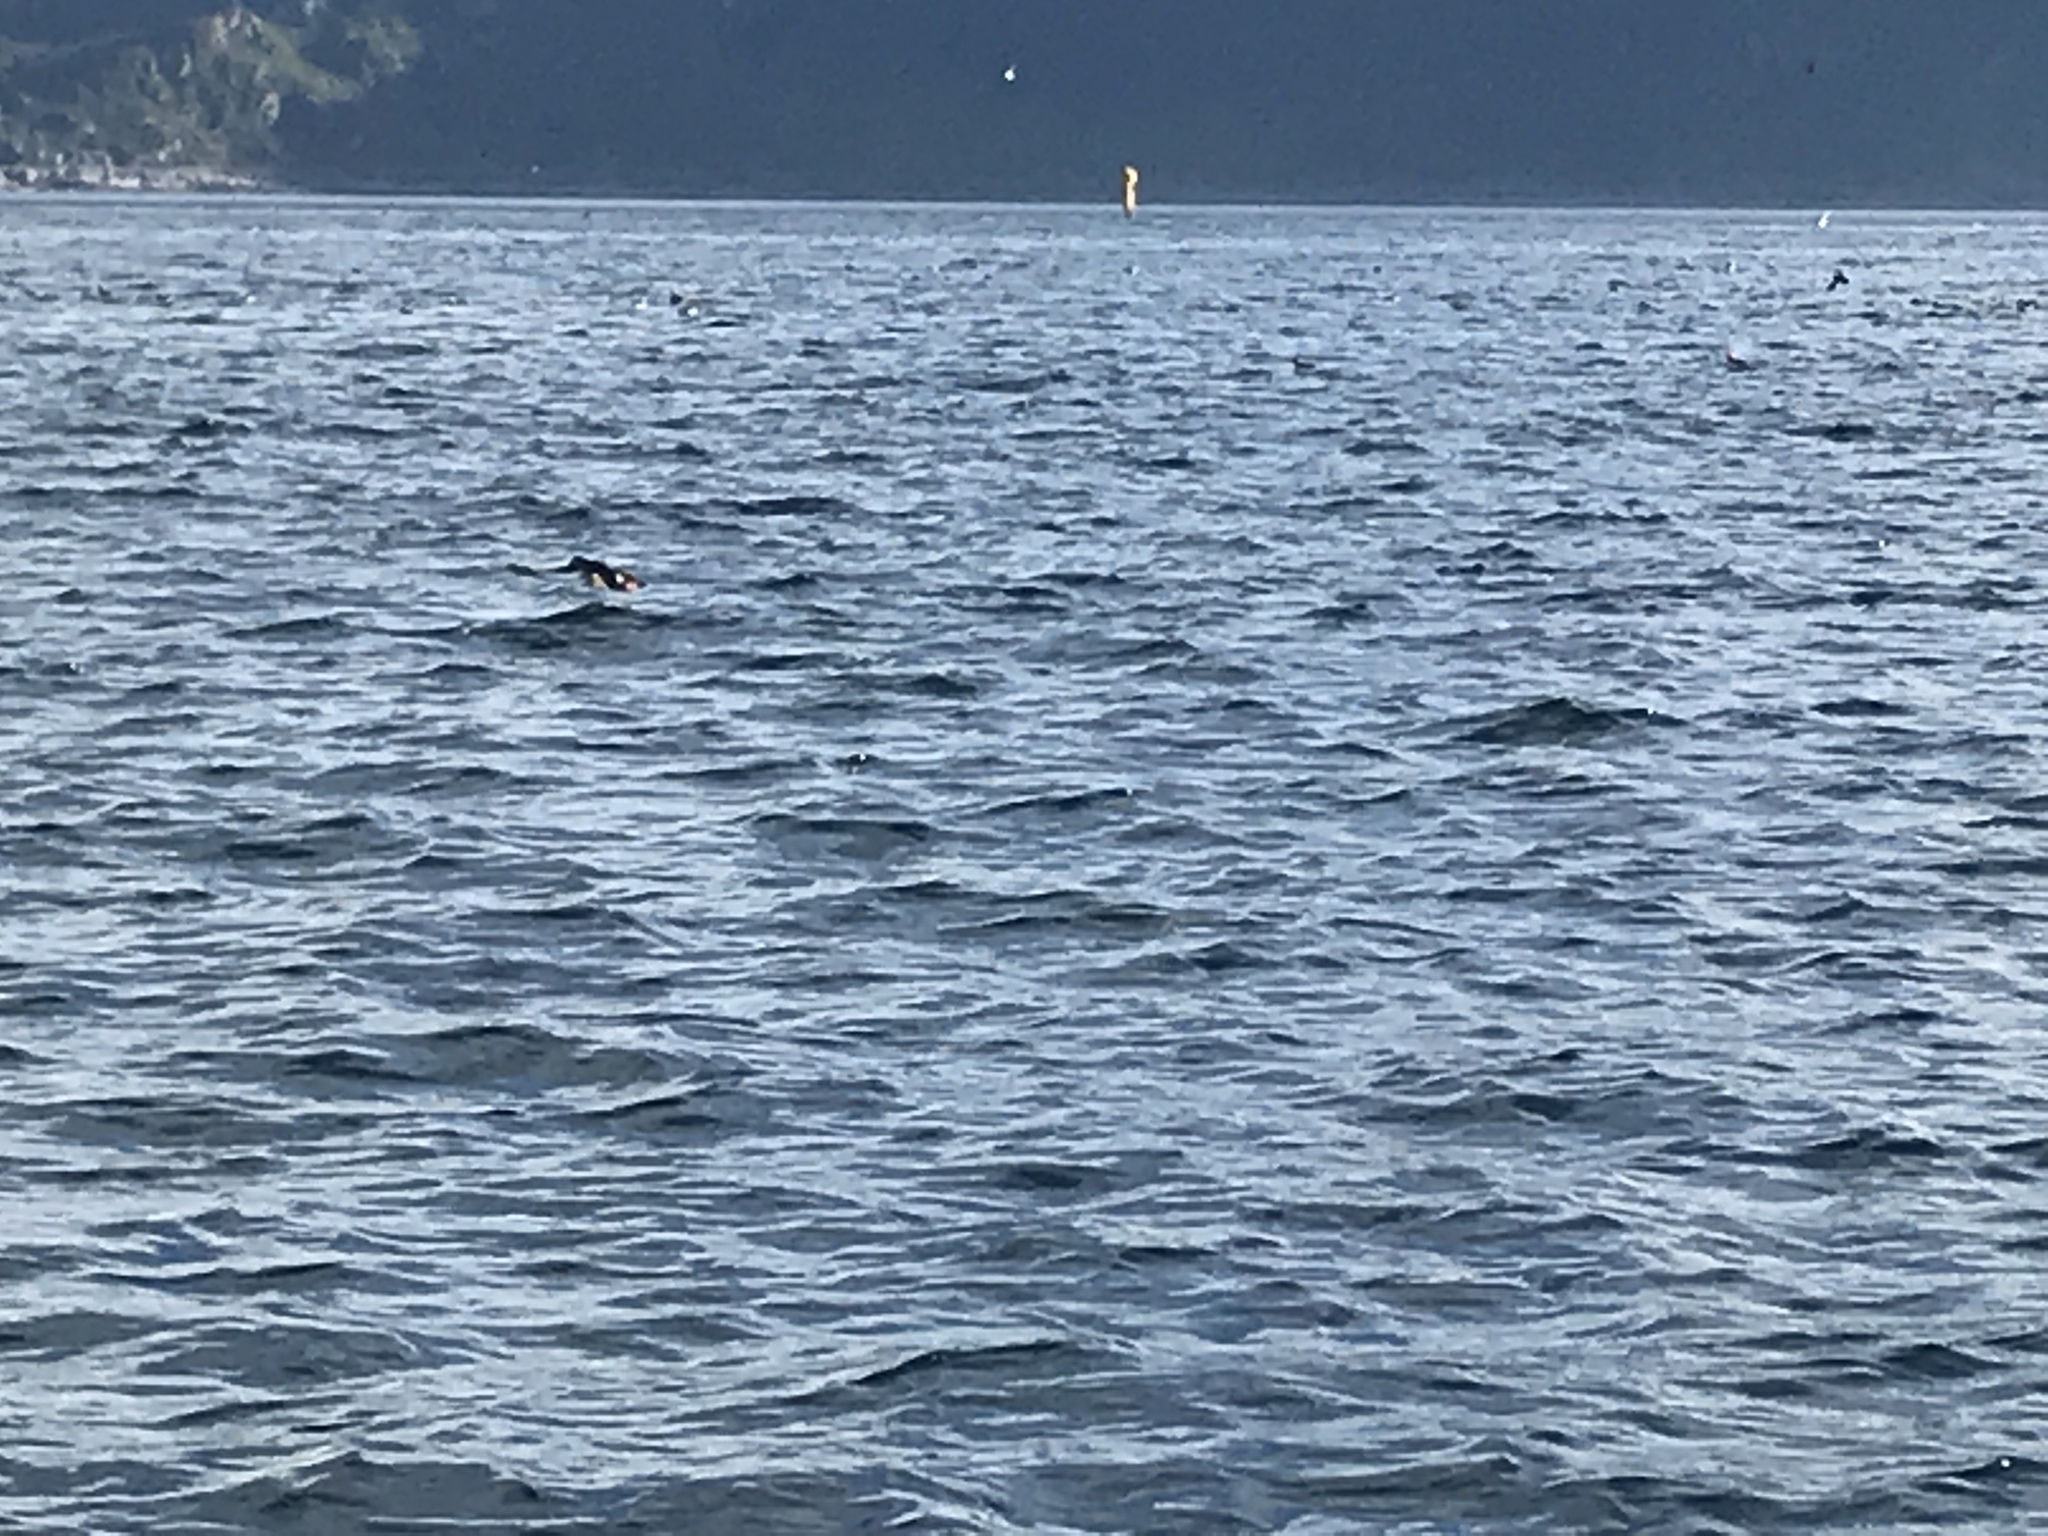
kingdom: Animalia
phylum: Chordata
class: Aves
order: Charadriiformes
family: Alcidae
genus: Fratercula
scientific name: Fratercula arctica
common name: Atlantic puffin
